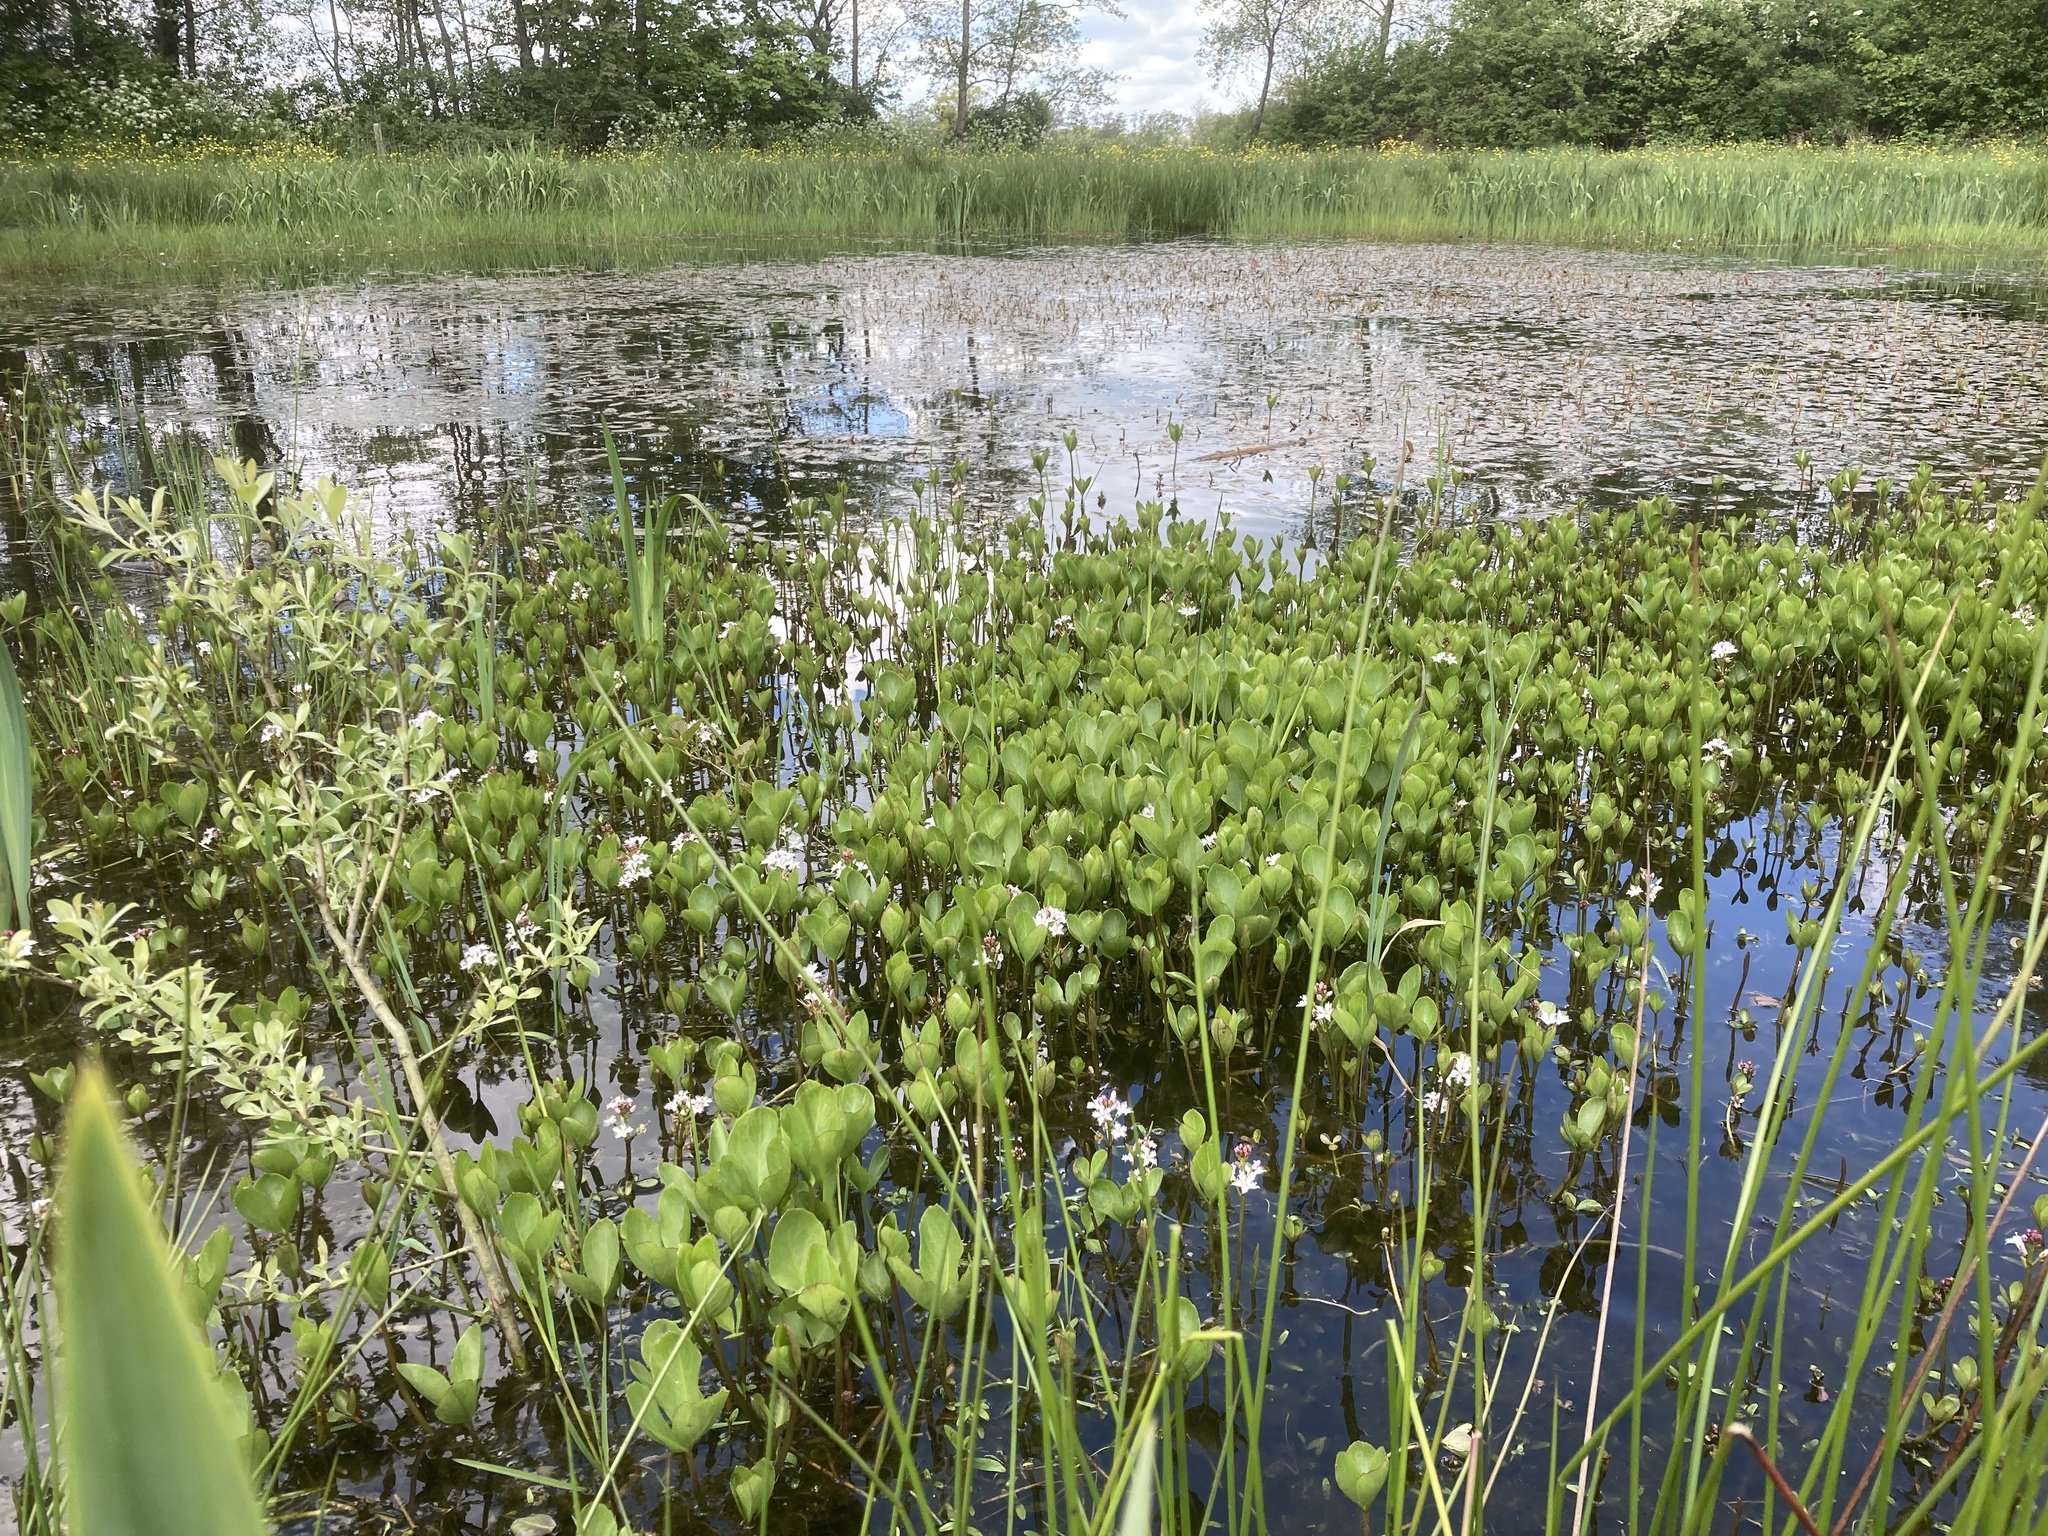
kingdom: Plantae
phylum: Tracheophyta
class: Magnoliopsida
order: Asterales
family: Menyanthaceae
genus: Menyanthes
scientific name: Menyanthes trifoliata
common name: Bogbean
